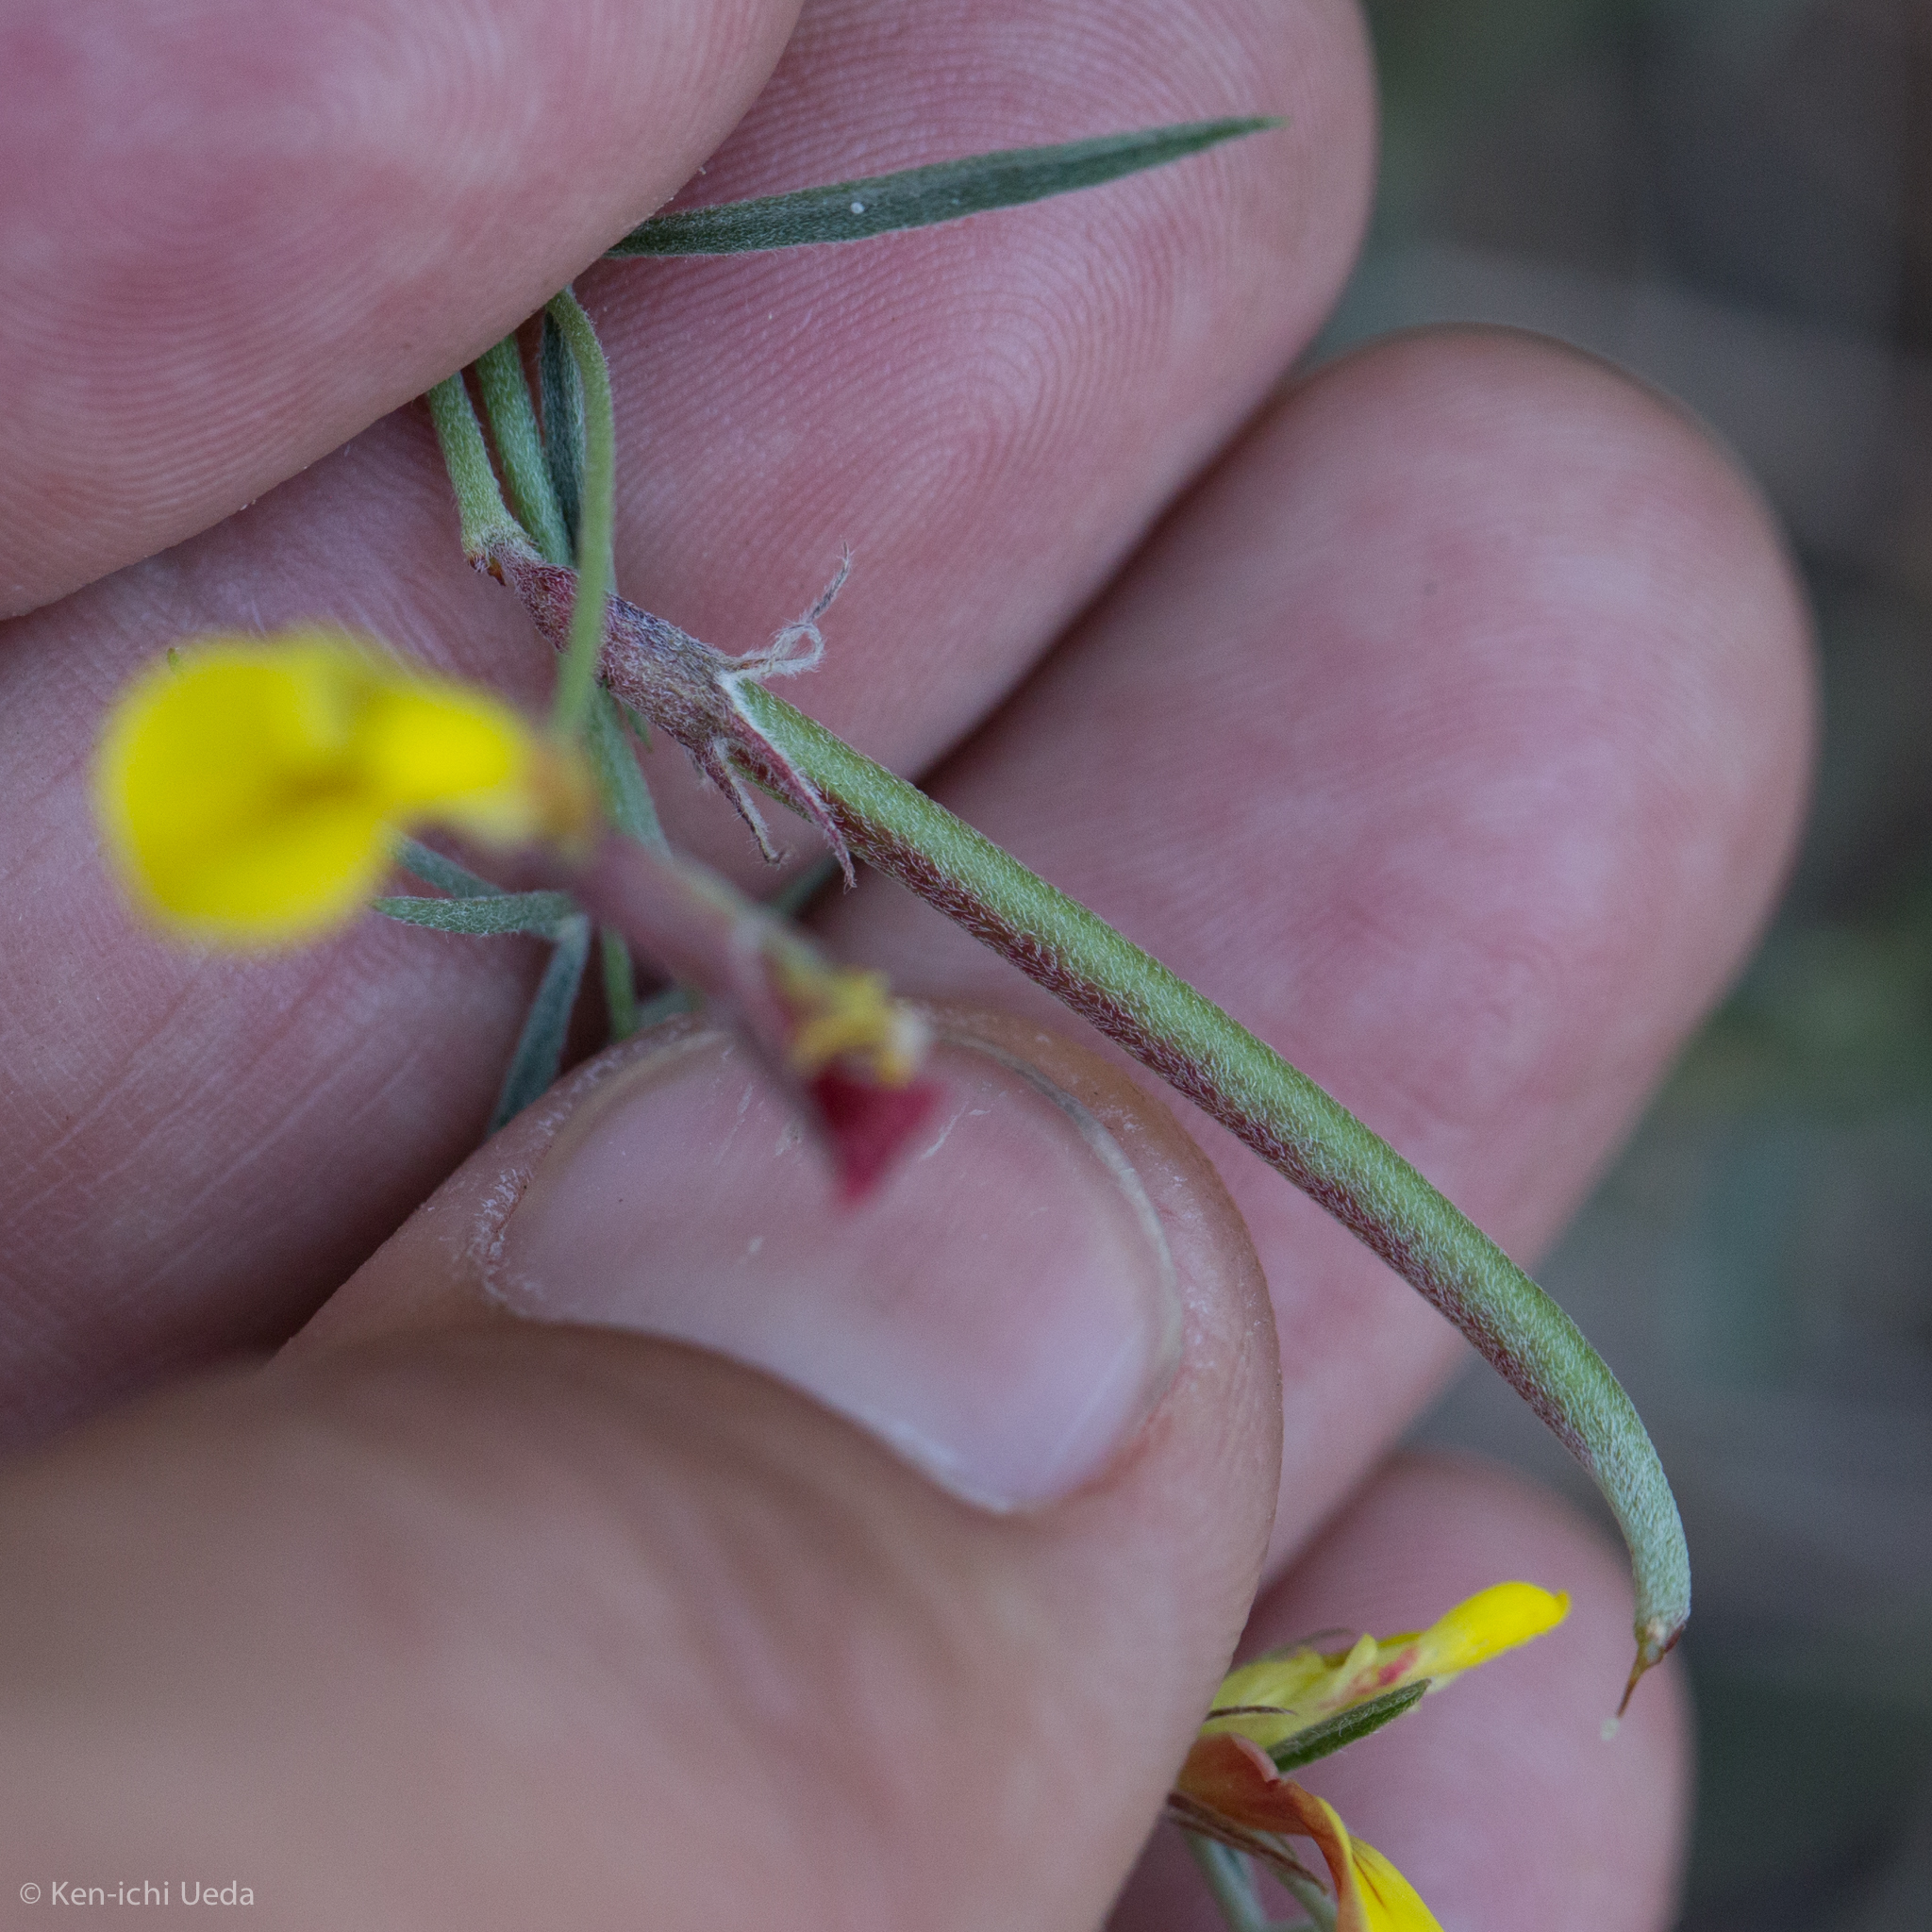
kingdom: Plantae
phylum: Tracheophyta
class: Magnoliopsida
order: Fabales
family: Fabaceae
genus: Acmispon
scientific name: Acmispon oroboides
